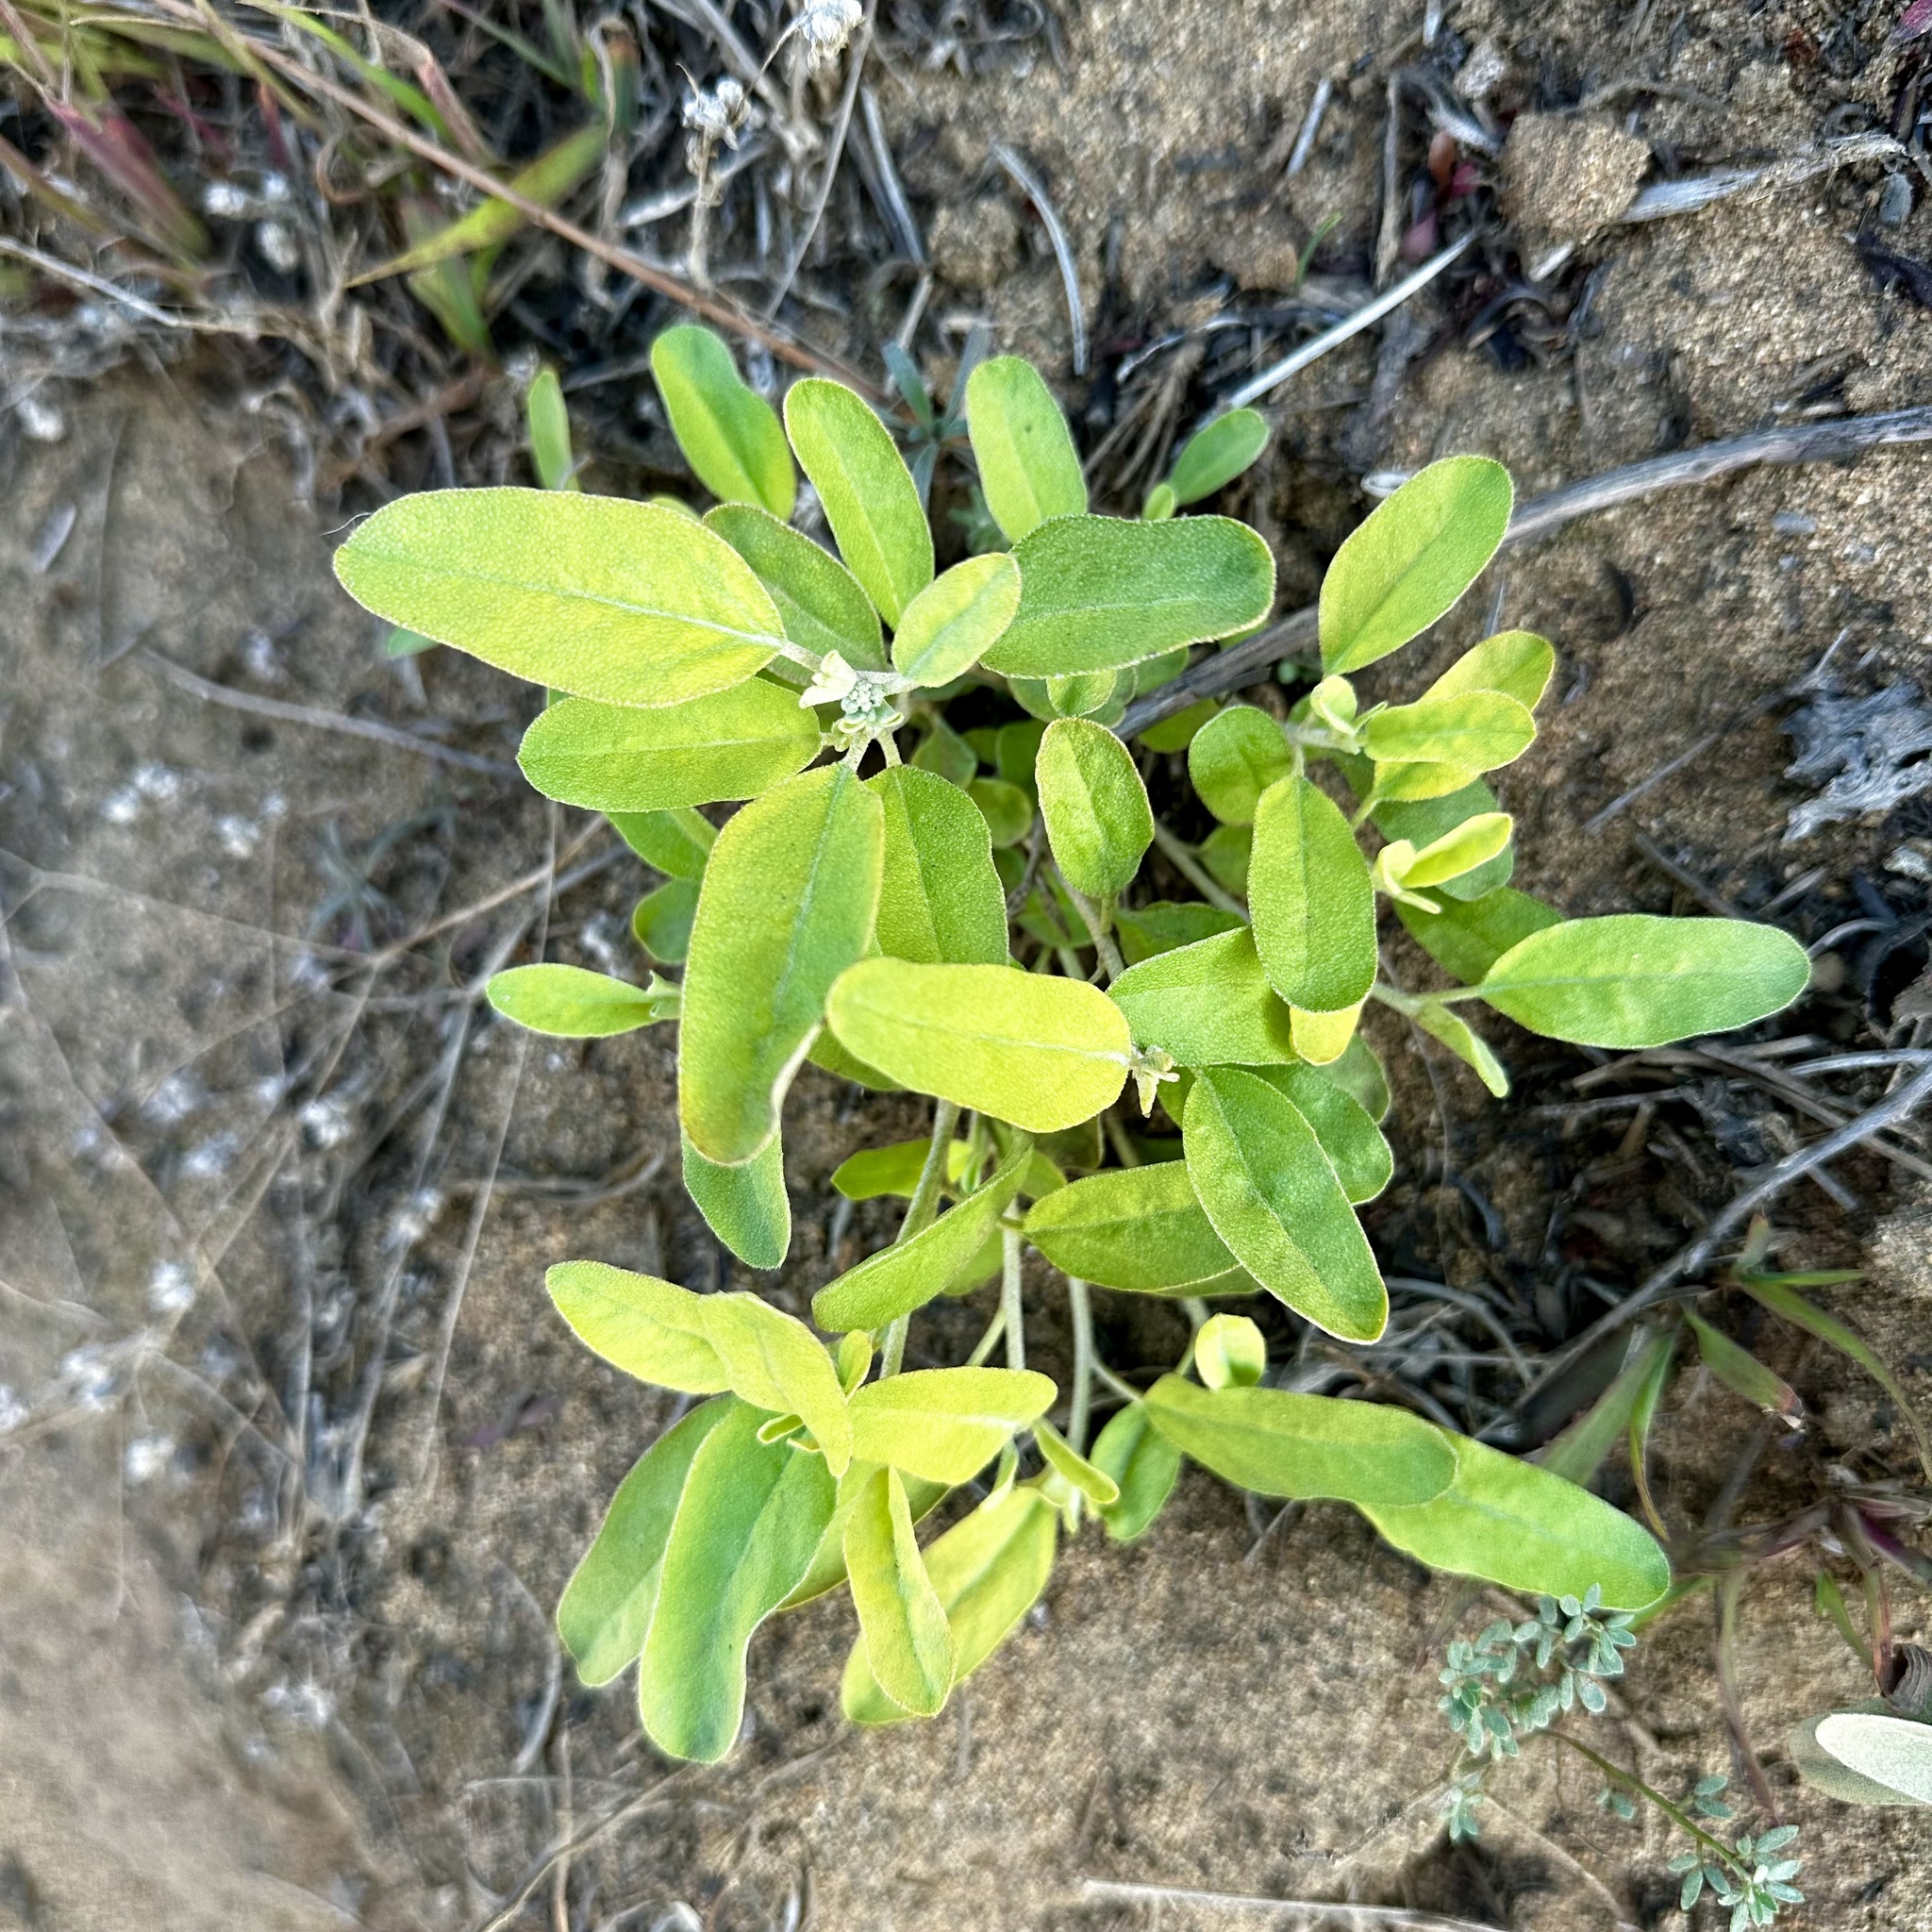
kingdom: Plantae
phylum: Tracheophyta
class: Magnoliopsida
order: Malpighiales
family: Euphorbiaceae
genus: Croton
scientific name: Croton californicus
